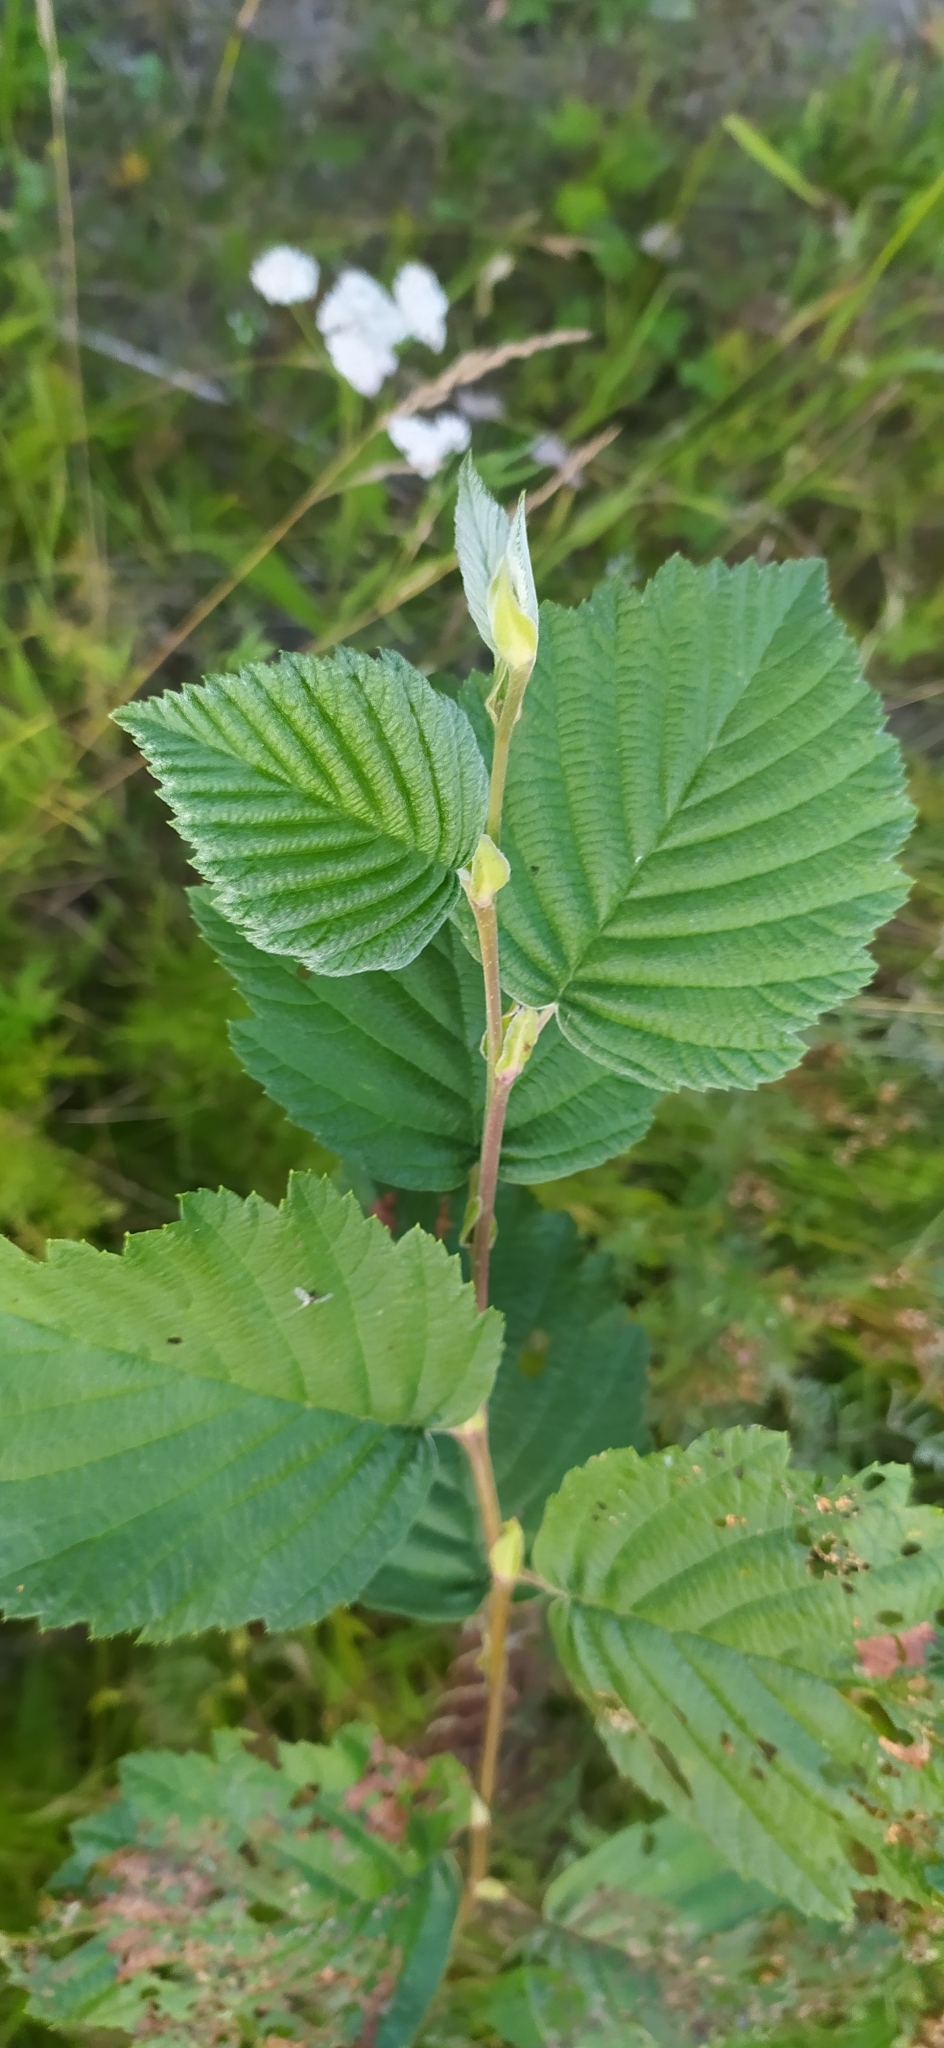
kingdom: Plantae
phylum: Tracheophyta
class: Magnoliopsida
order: Fagales
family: Betulaceae
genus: Alnus
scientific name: Alnus incana
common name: Grey alder
